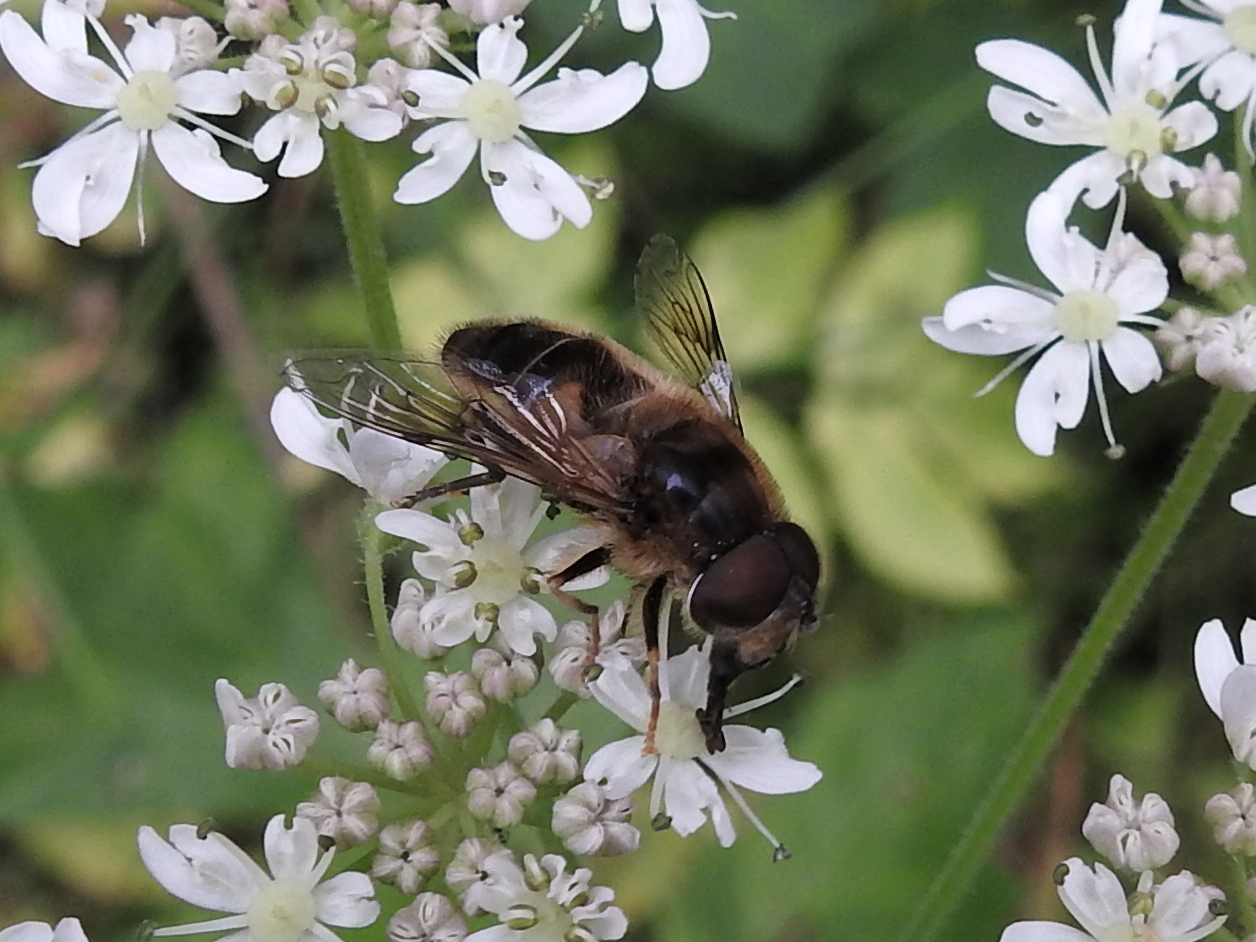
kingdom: Animalia
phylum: Arthropoda
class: Insecta
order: Diptera
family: Syrphidae
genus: Eristalis
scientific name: Eristalis pertinax
